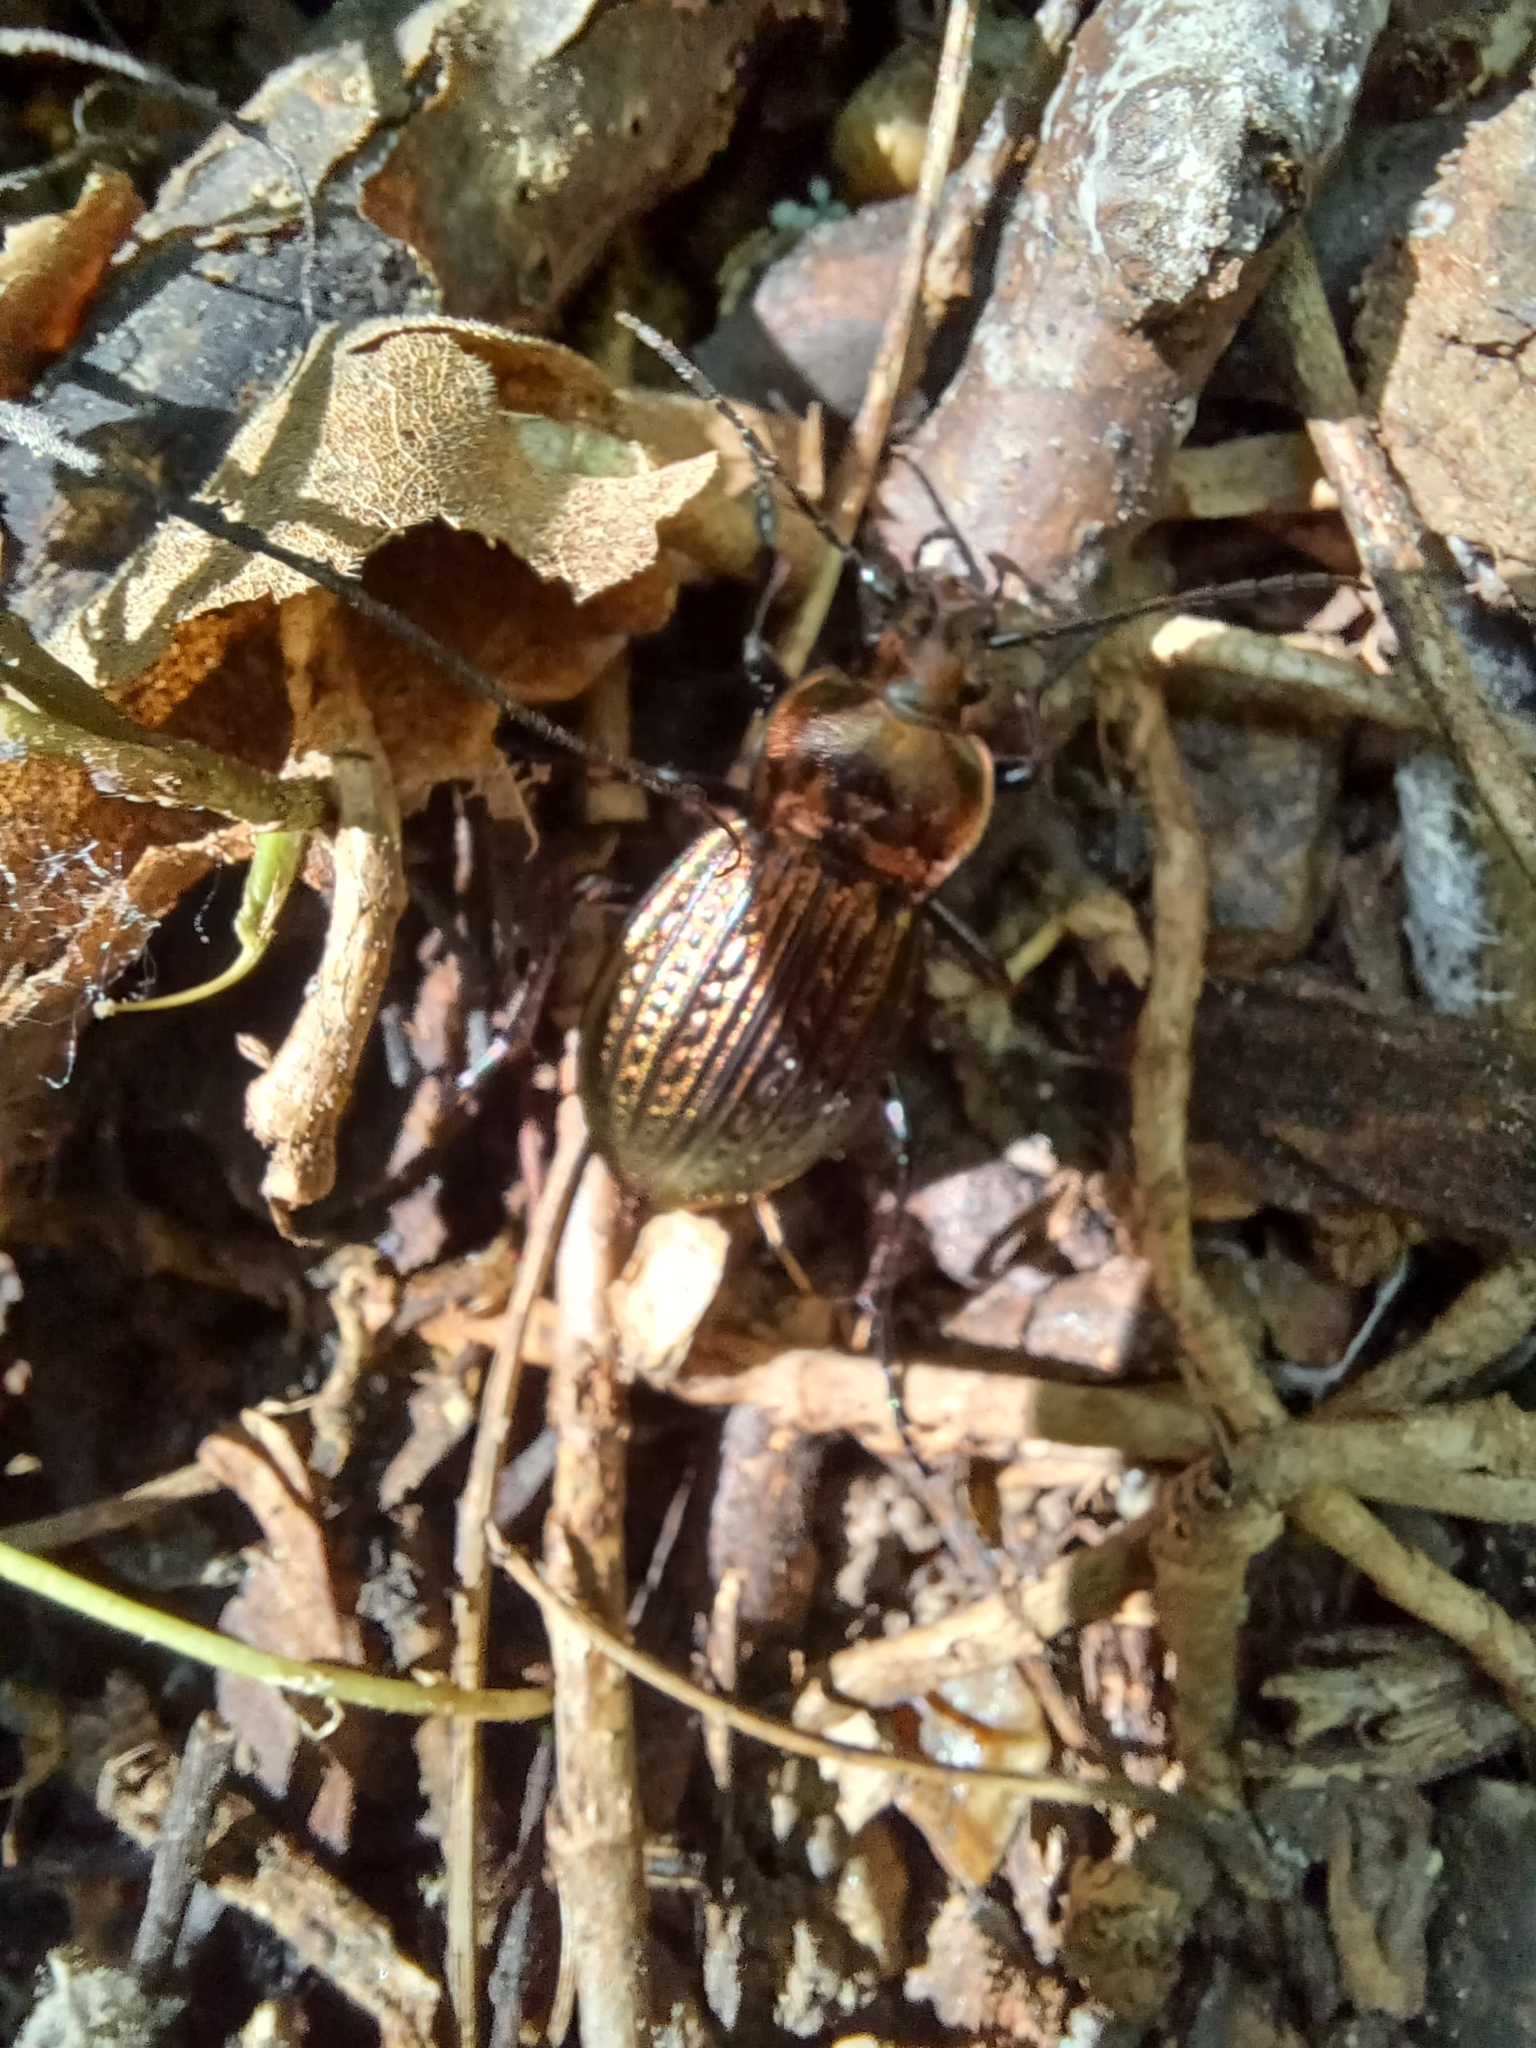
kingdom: Animalia
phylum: Arthropoda
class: Insecta
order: Coleoptera
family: Carabidae
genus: Carabus
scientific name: Carabus ulrichii
